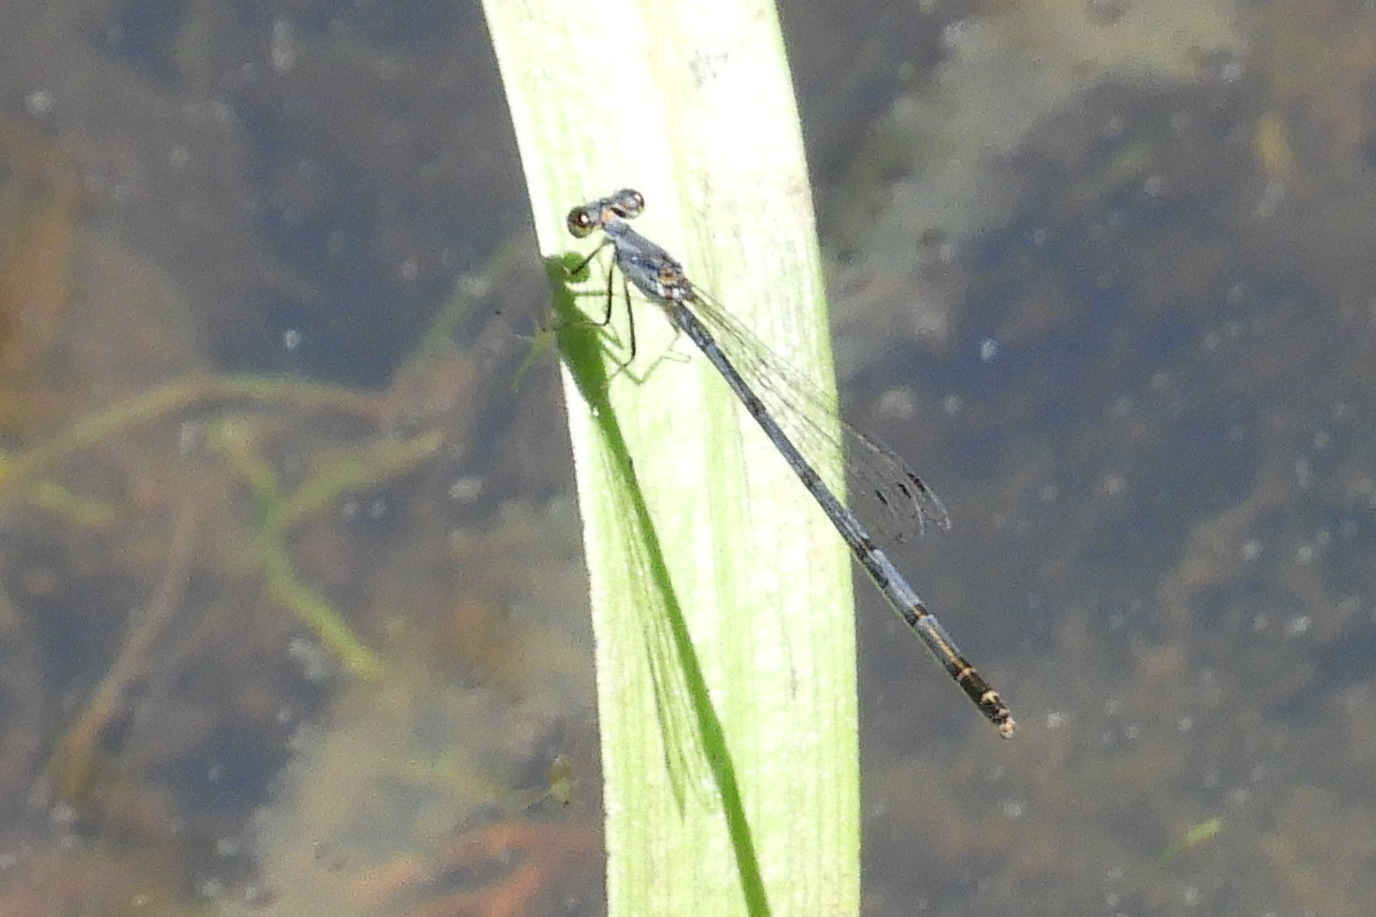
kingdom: Animalia
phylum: Arthropoda
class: Insecta
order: Odonata
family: Coenagrionidae
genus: Ischnura
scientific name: Ischnura posita
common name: Fragile forktail
